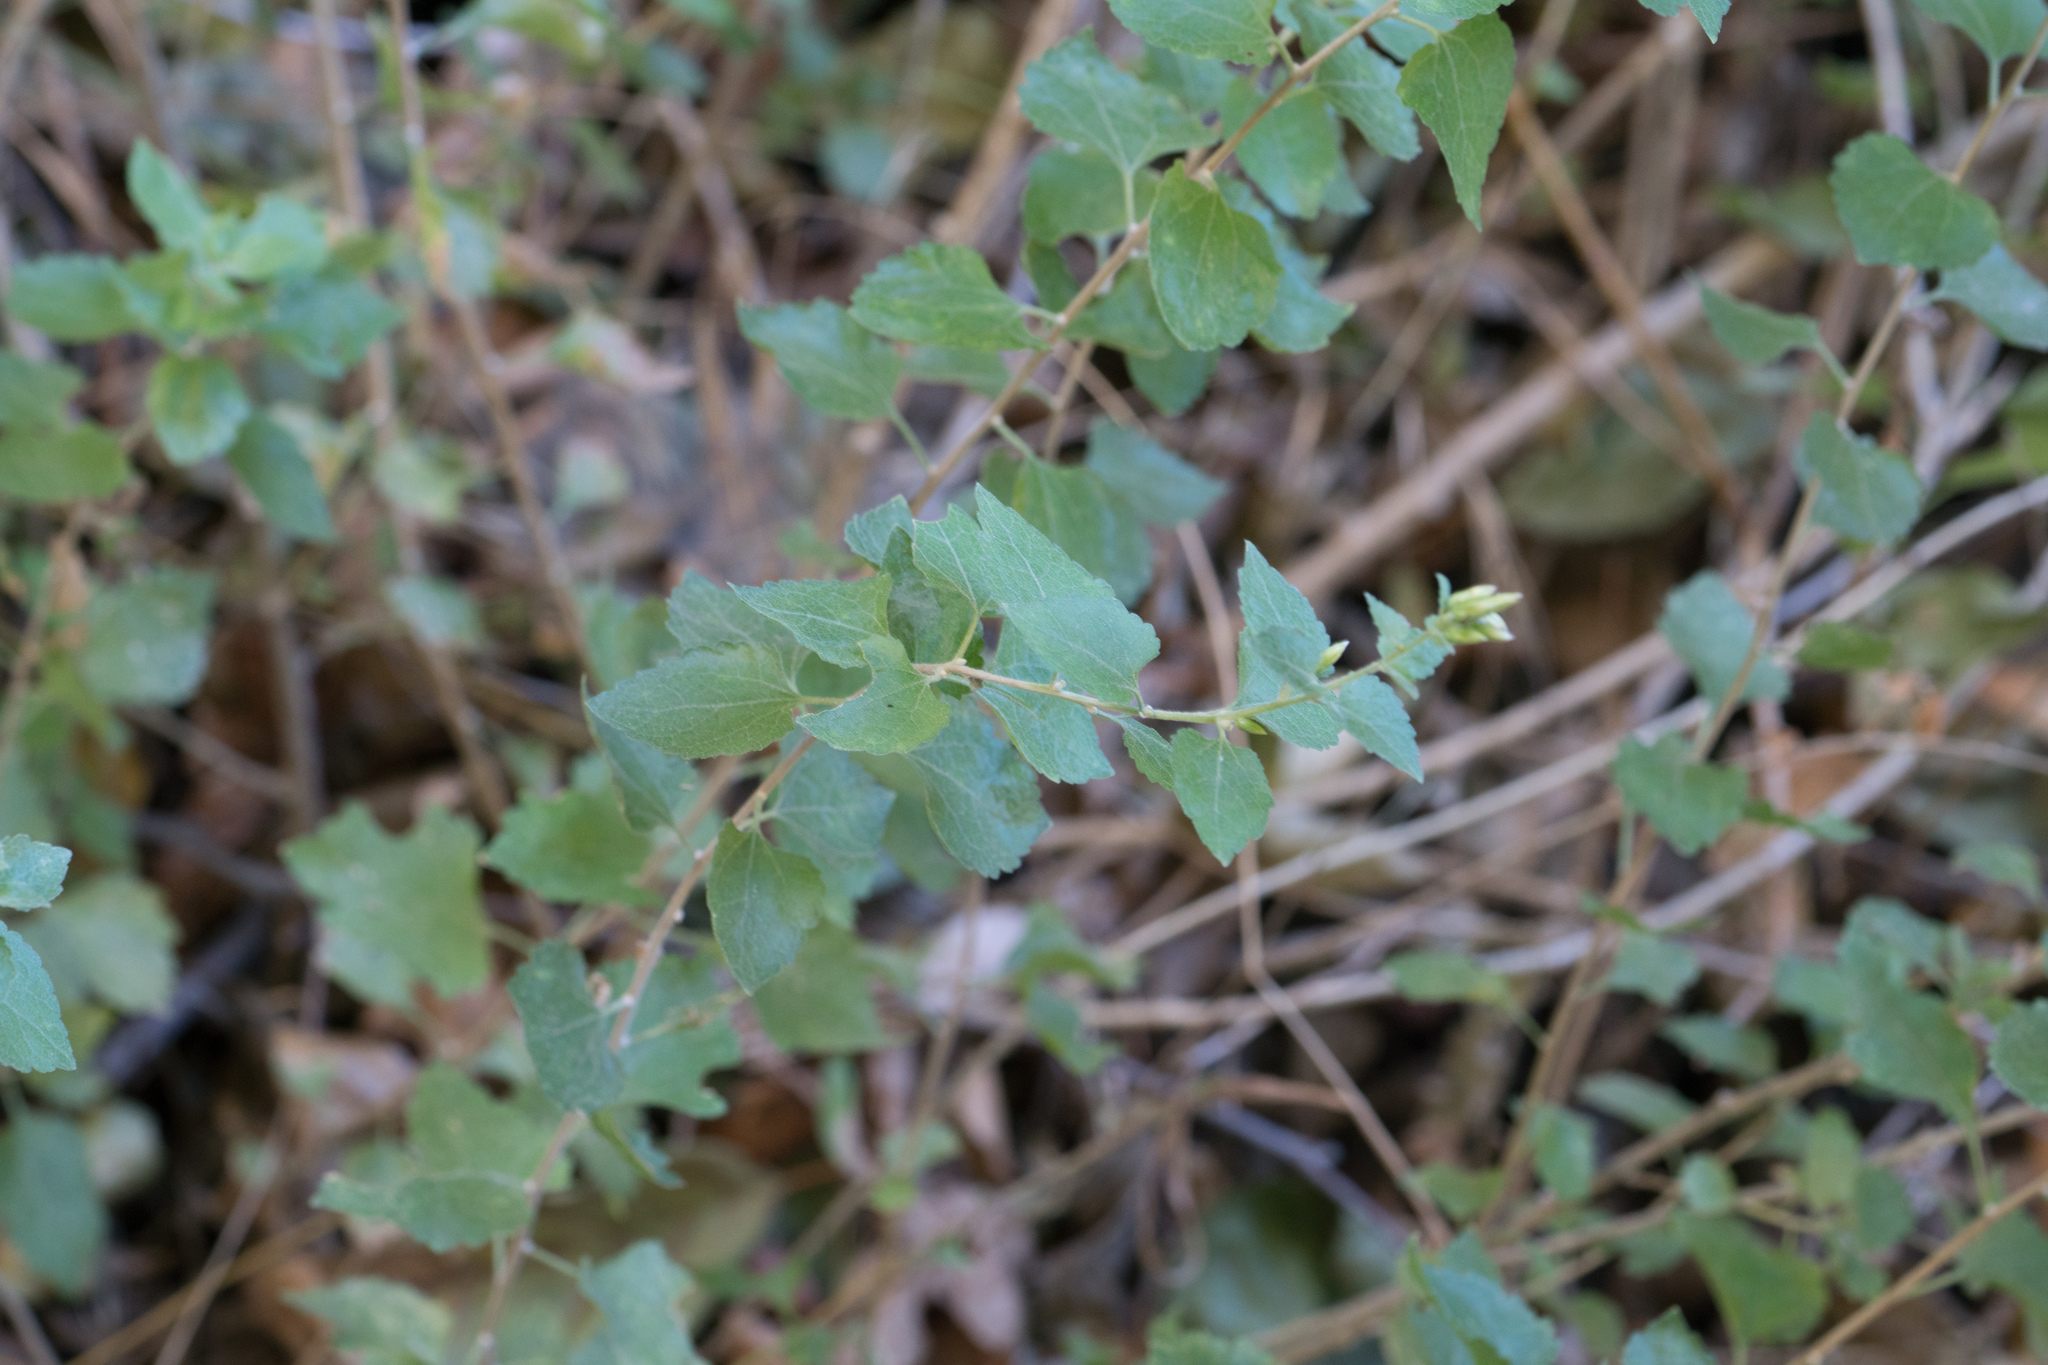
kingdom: Plantae
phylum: Tracheophyta
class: Magnoliopsida
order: Asterales
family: Asteraceae
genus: Brickellia
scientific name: Brickellia californica
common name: California brickellbush
